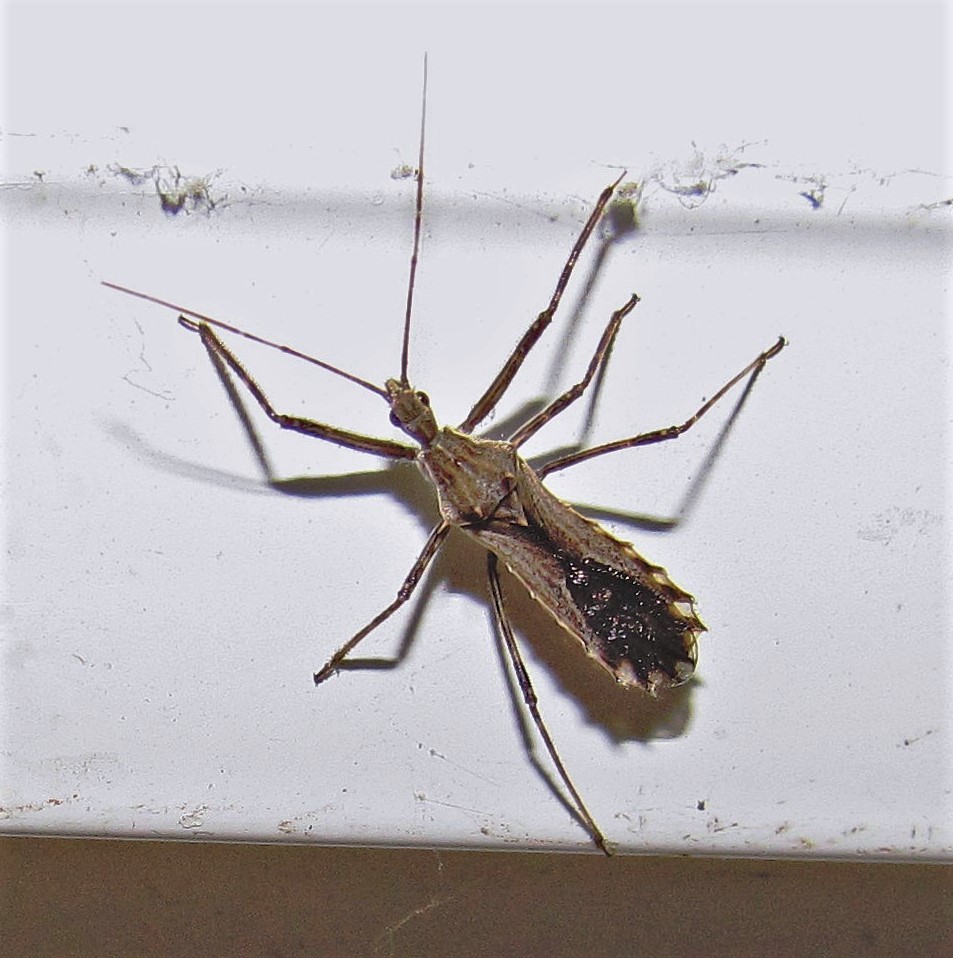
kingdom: Animalia
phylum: Arthropoda
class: Insecta
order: Hemiptera
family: Reduviidae
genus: Atrachelus
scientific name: Atrachelus cinereus
